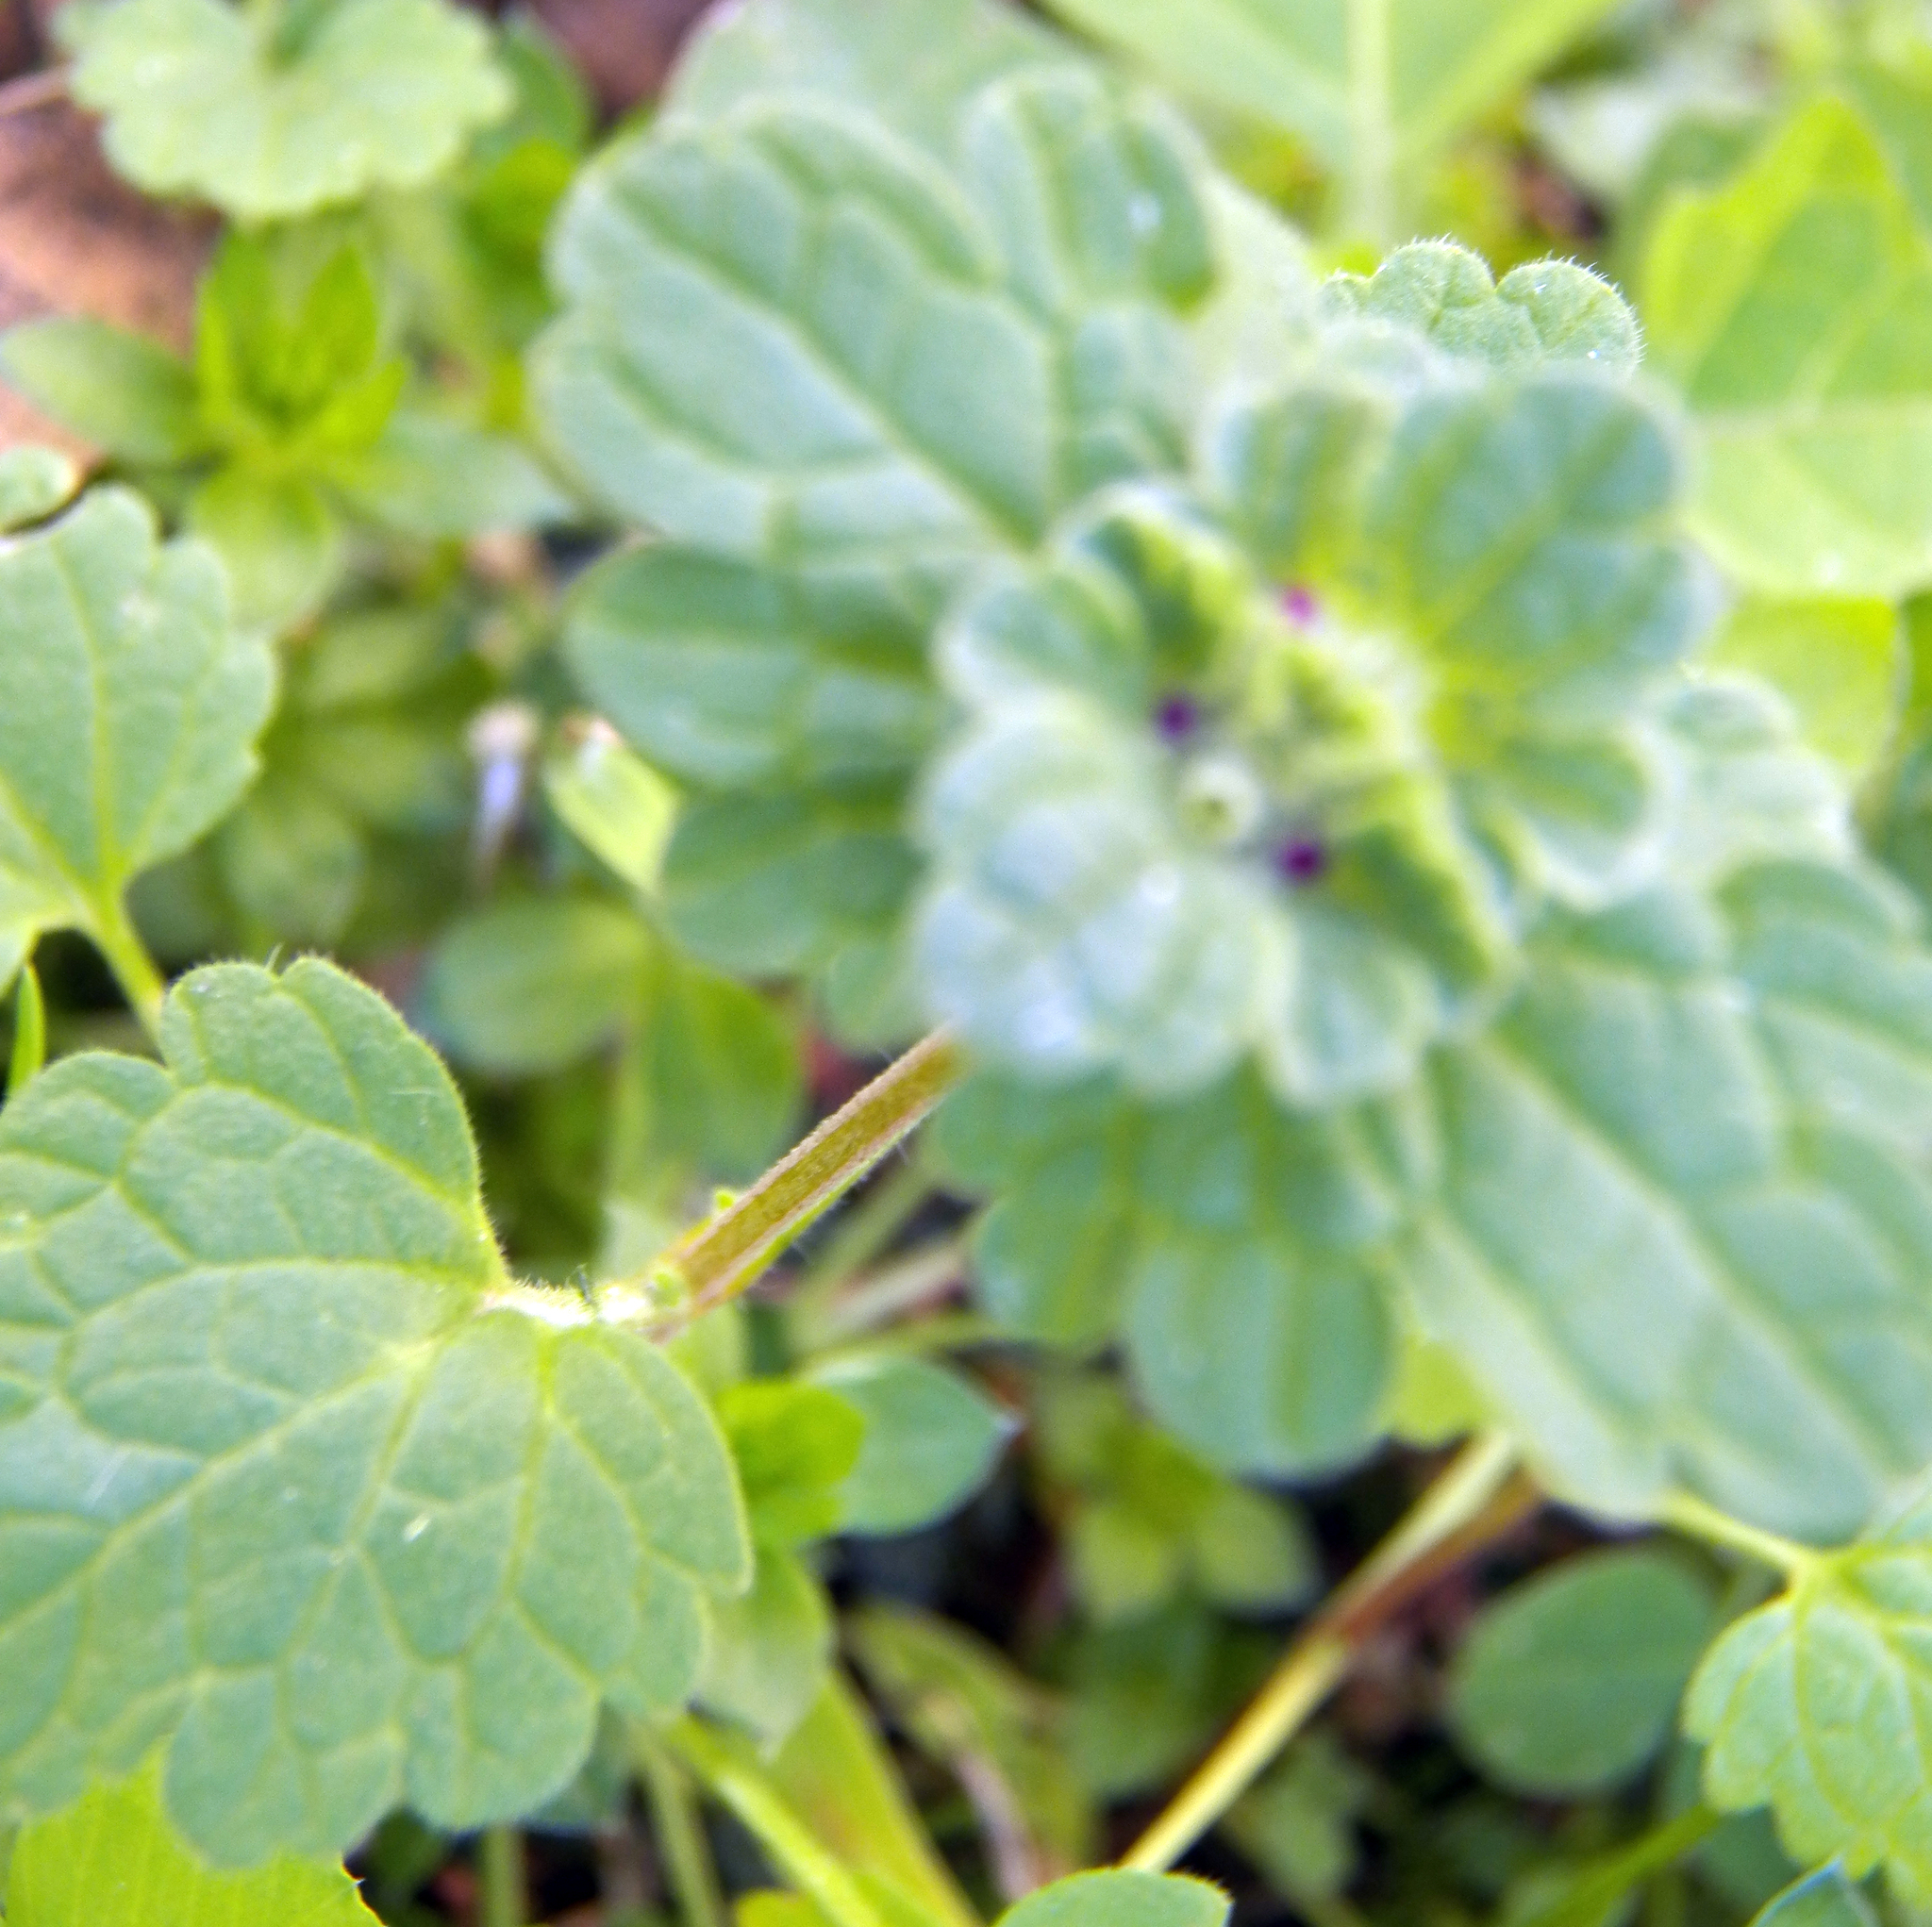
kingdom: Plantae
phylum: Tracheophyta
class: Magnoliopsida
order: Lamiales
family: Lamiaceae
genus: Lamium
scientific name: Lamium amplexicaule
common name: Henbit dead-nettle
